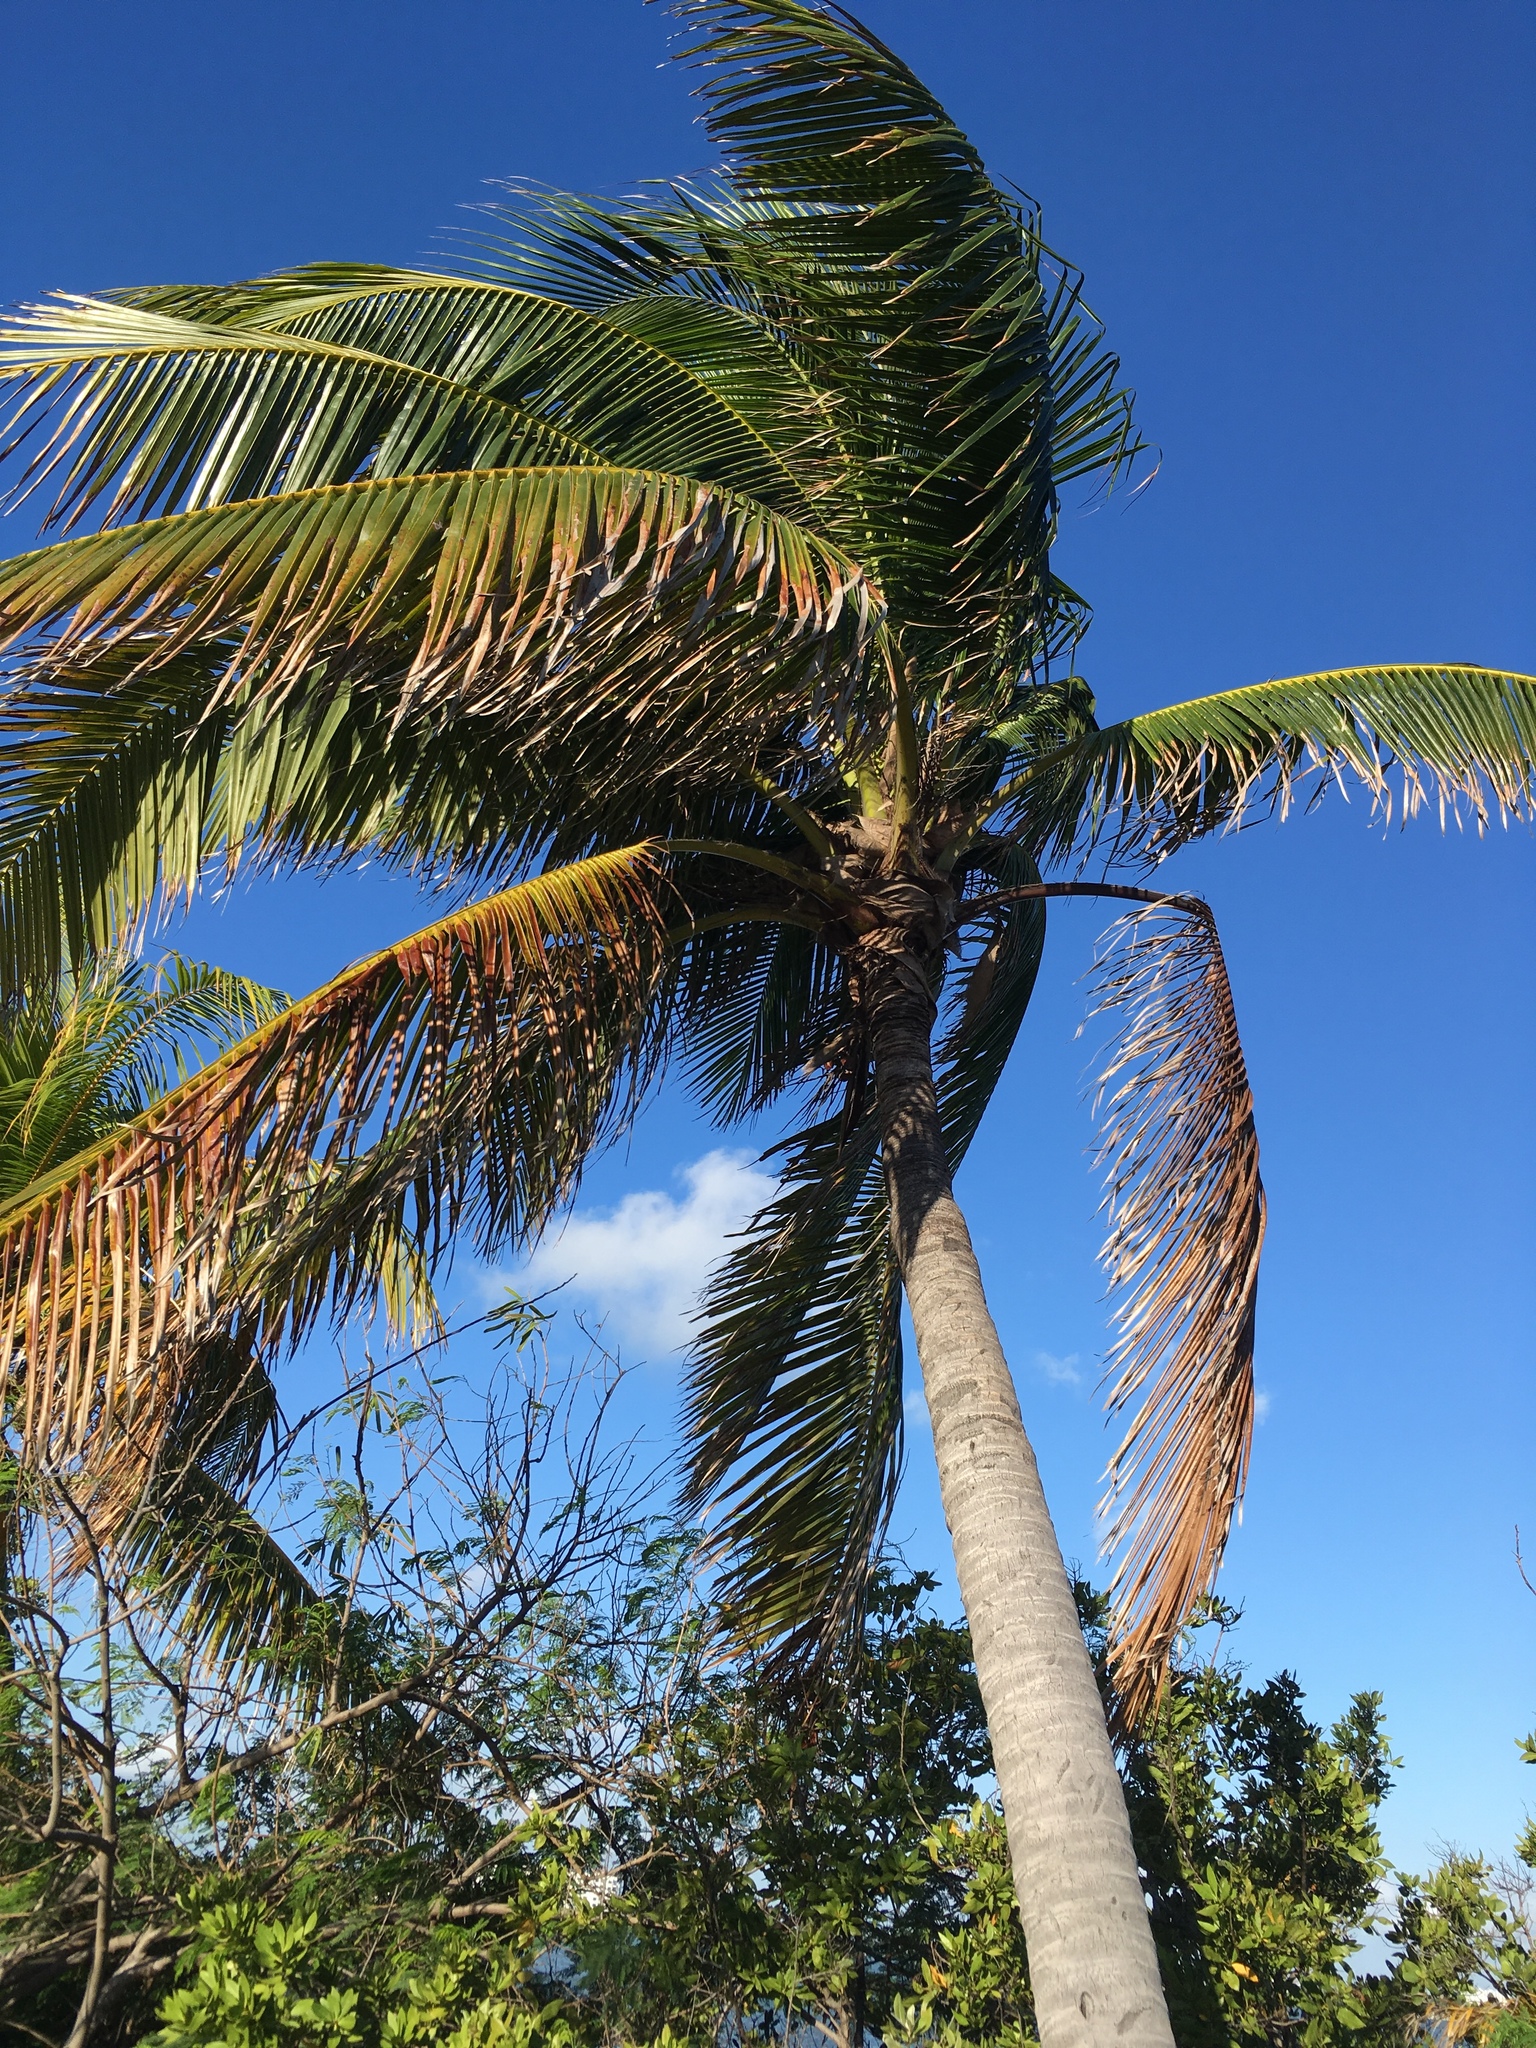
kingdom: Plantae
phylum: Tracheophyta
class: Liliopsida
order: Arecales
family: Arecaceae
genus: Cocos
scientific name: Cocos nucifera
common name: Coconut palm
